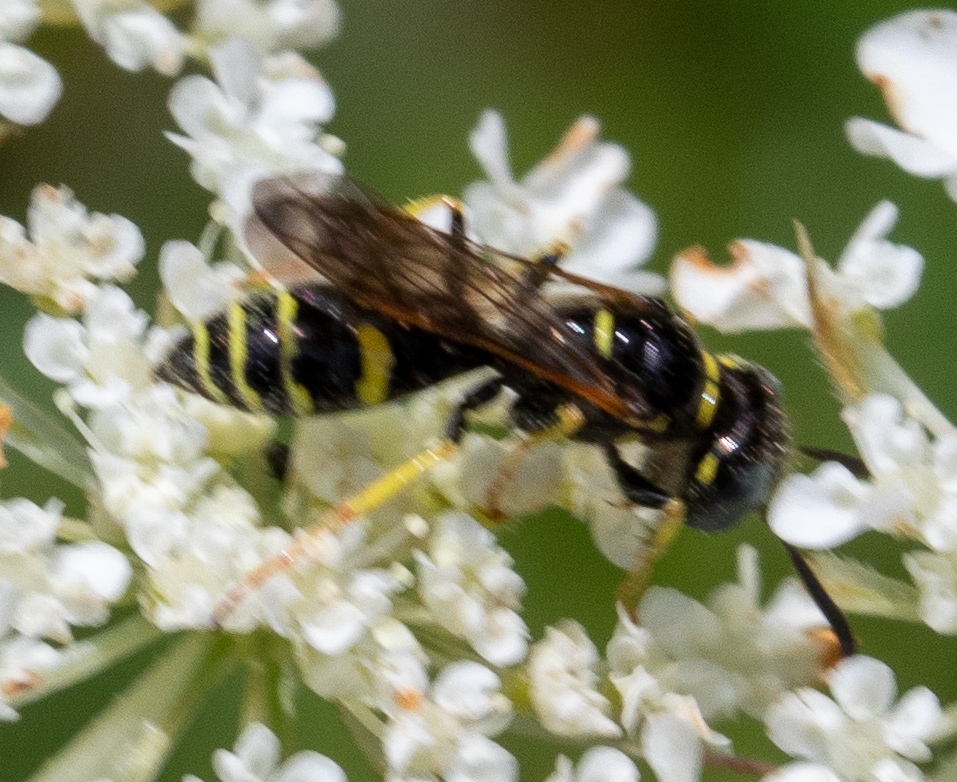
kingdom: Animalia
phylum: Arthropoda
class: Insecta
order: Hymenoptera
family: Crabronidae
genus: Philanthus
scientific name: Philanthus bilunatus
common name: Two moons beewolf
